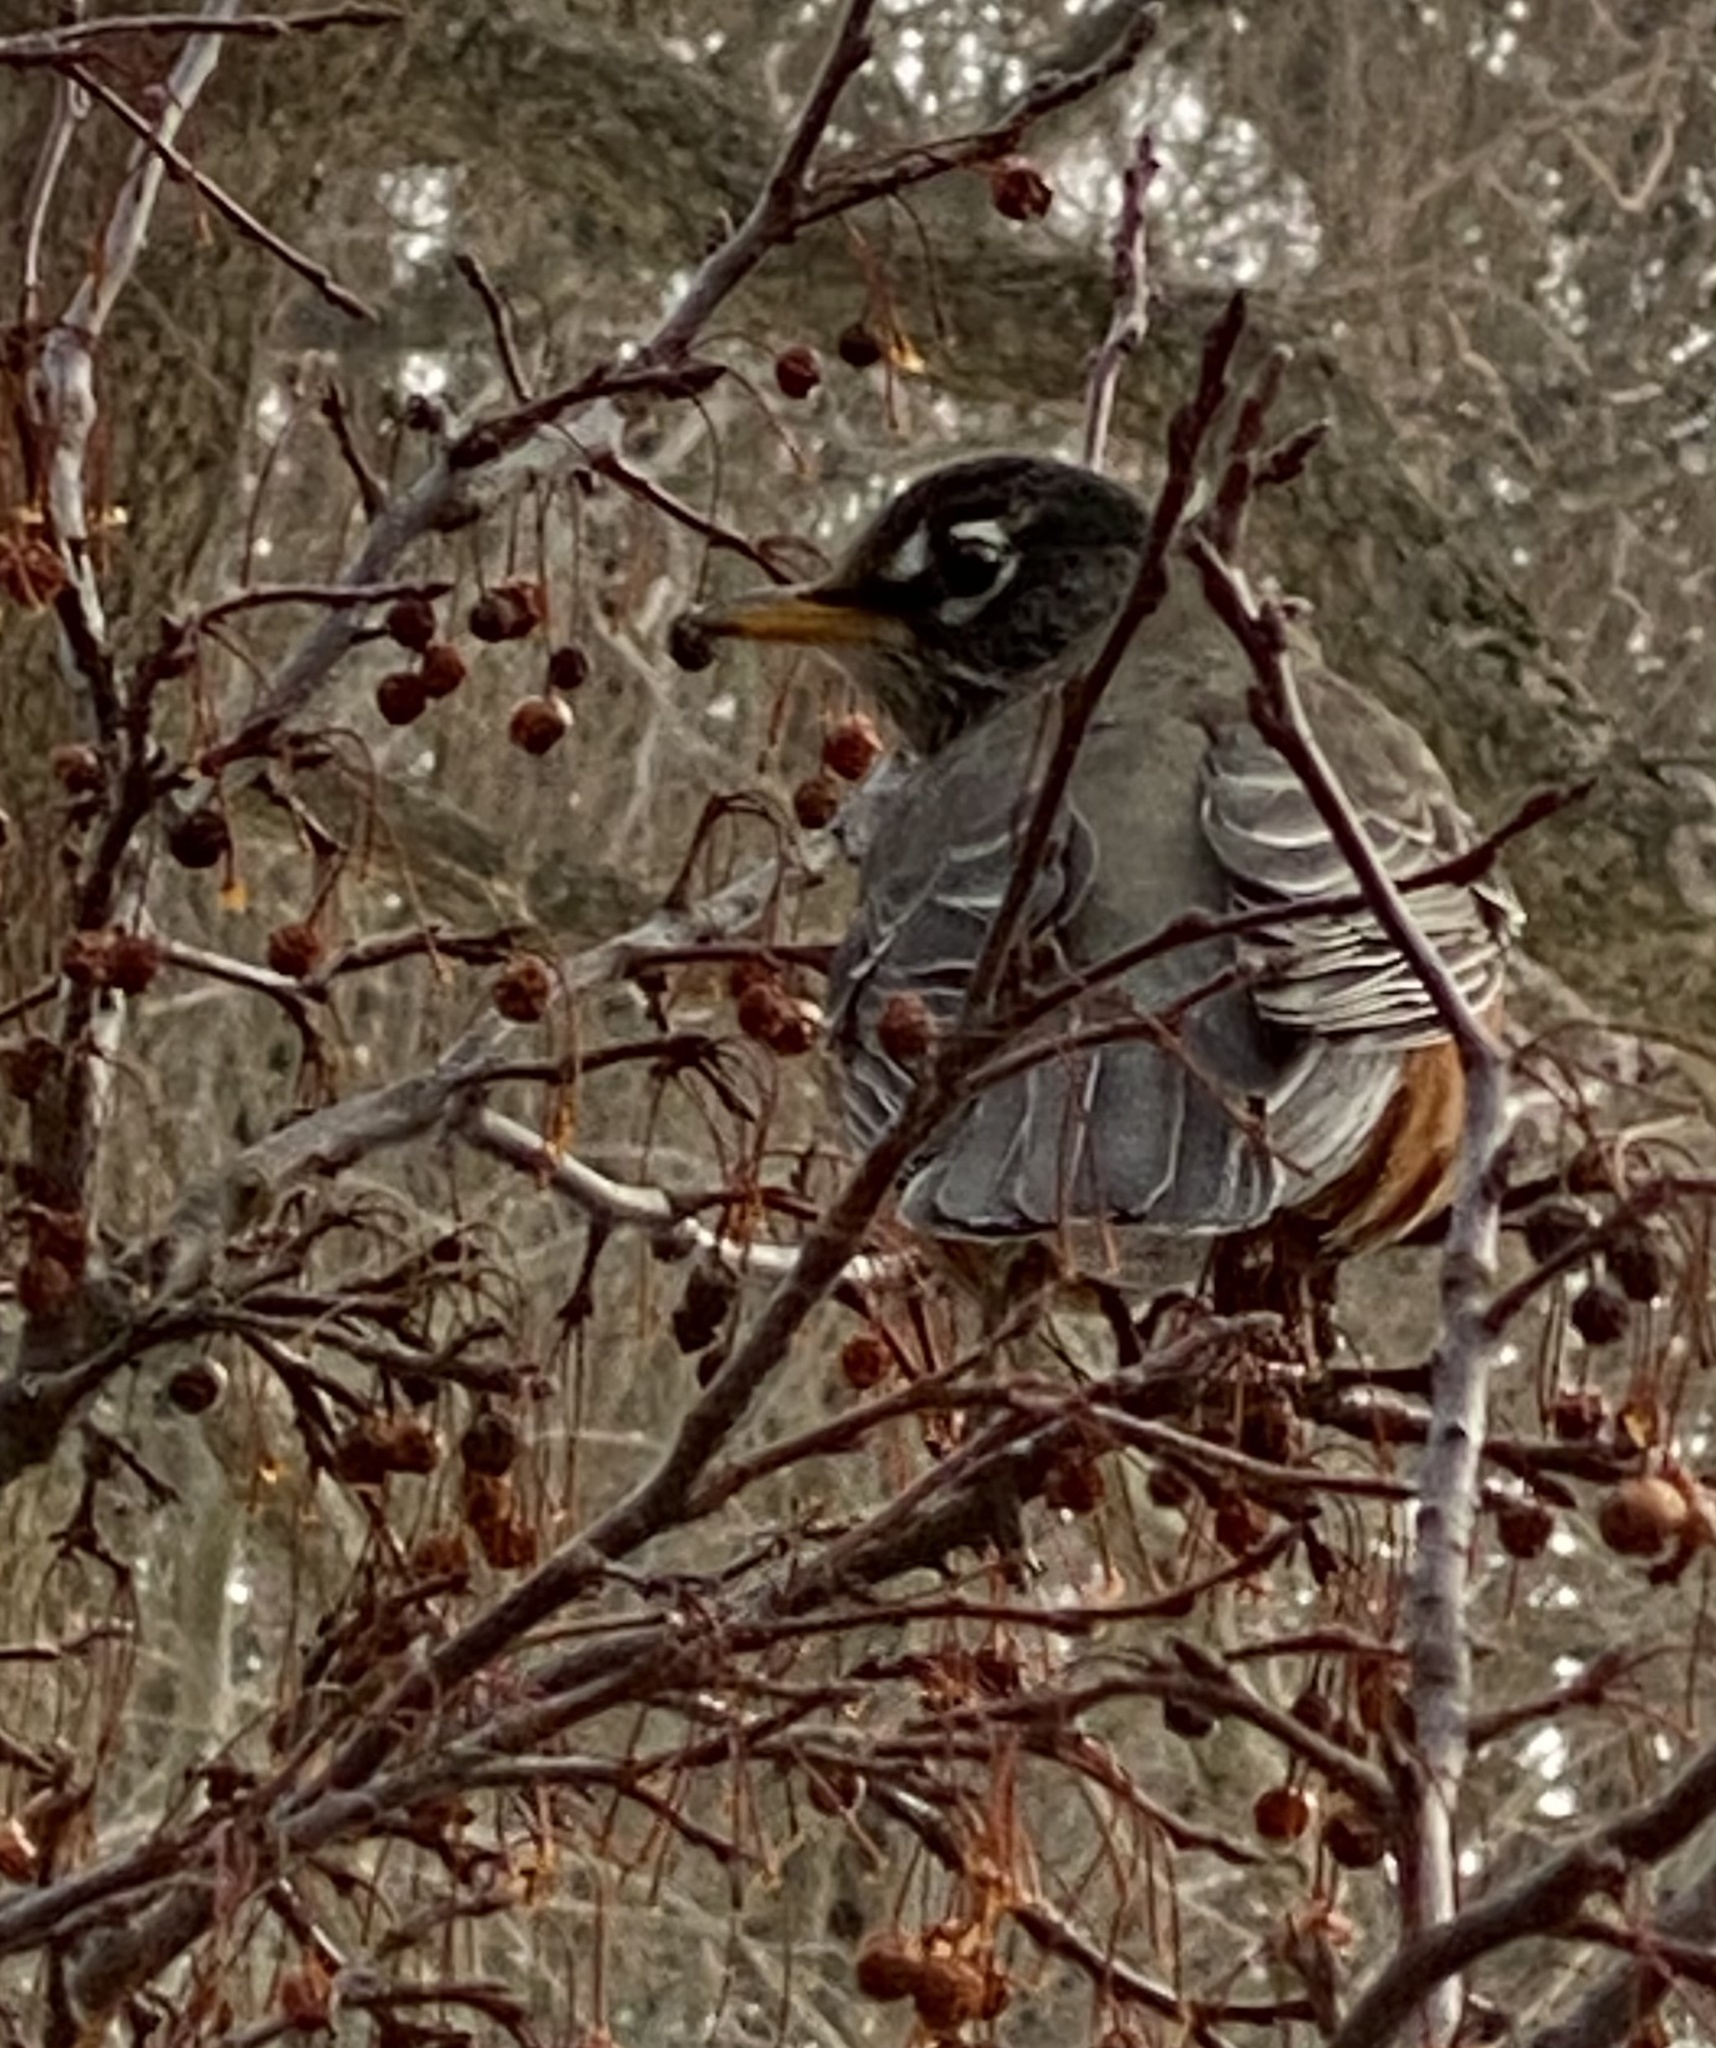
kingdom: Animalia
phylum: Chordata
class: Aves
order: Passeriformes
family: Turdidae
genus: Turdus
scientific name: Turdus migratorius
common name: American robin
